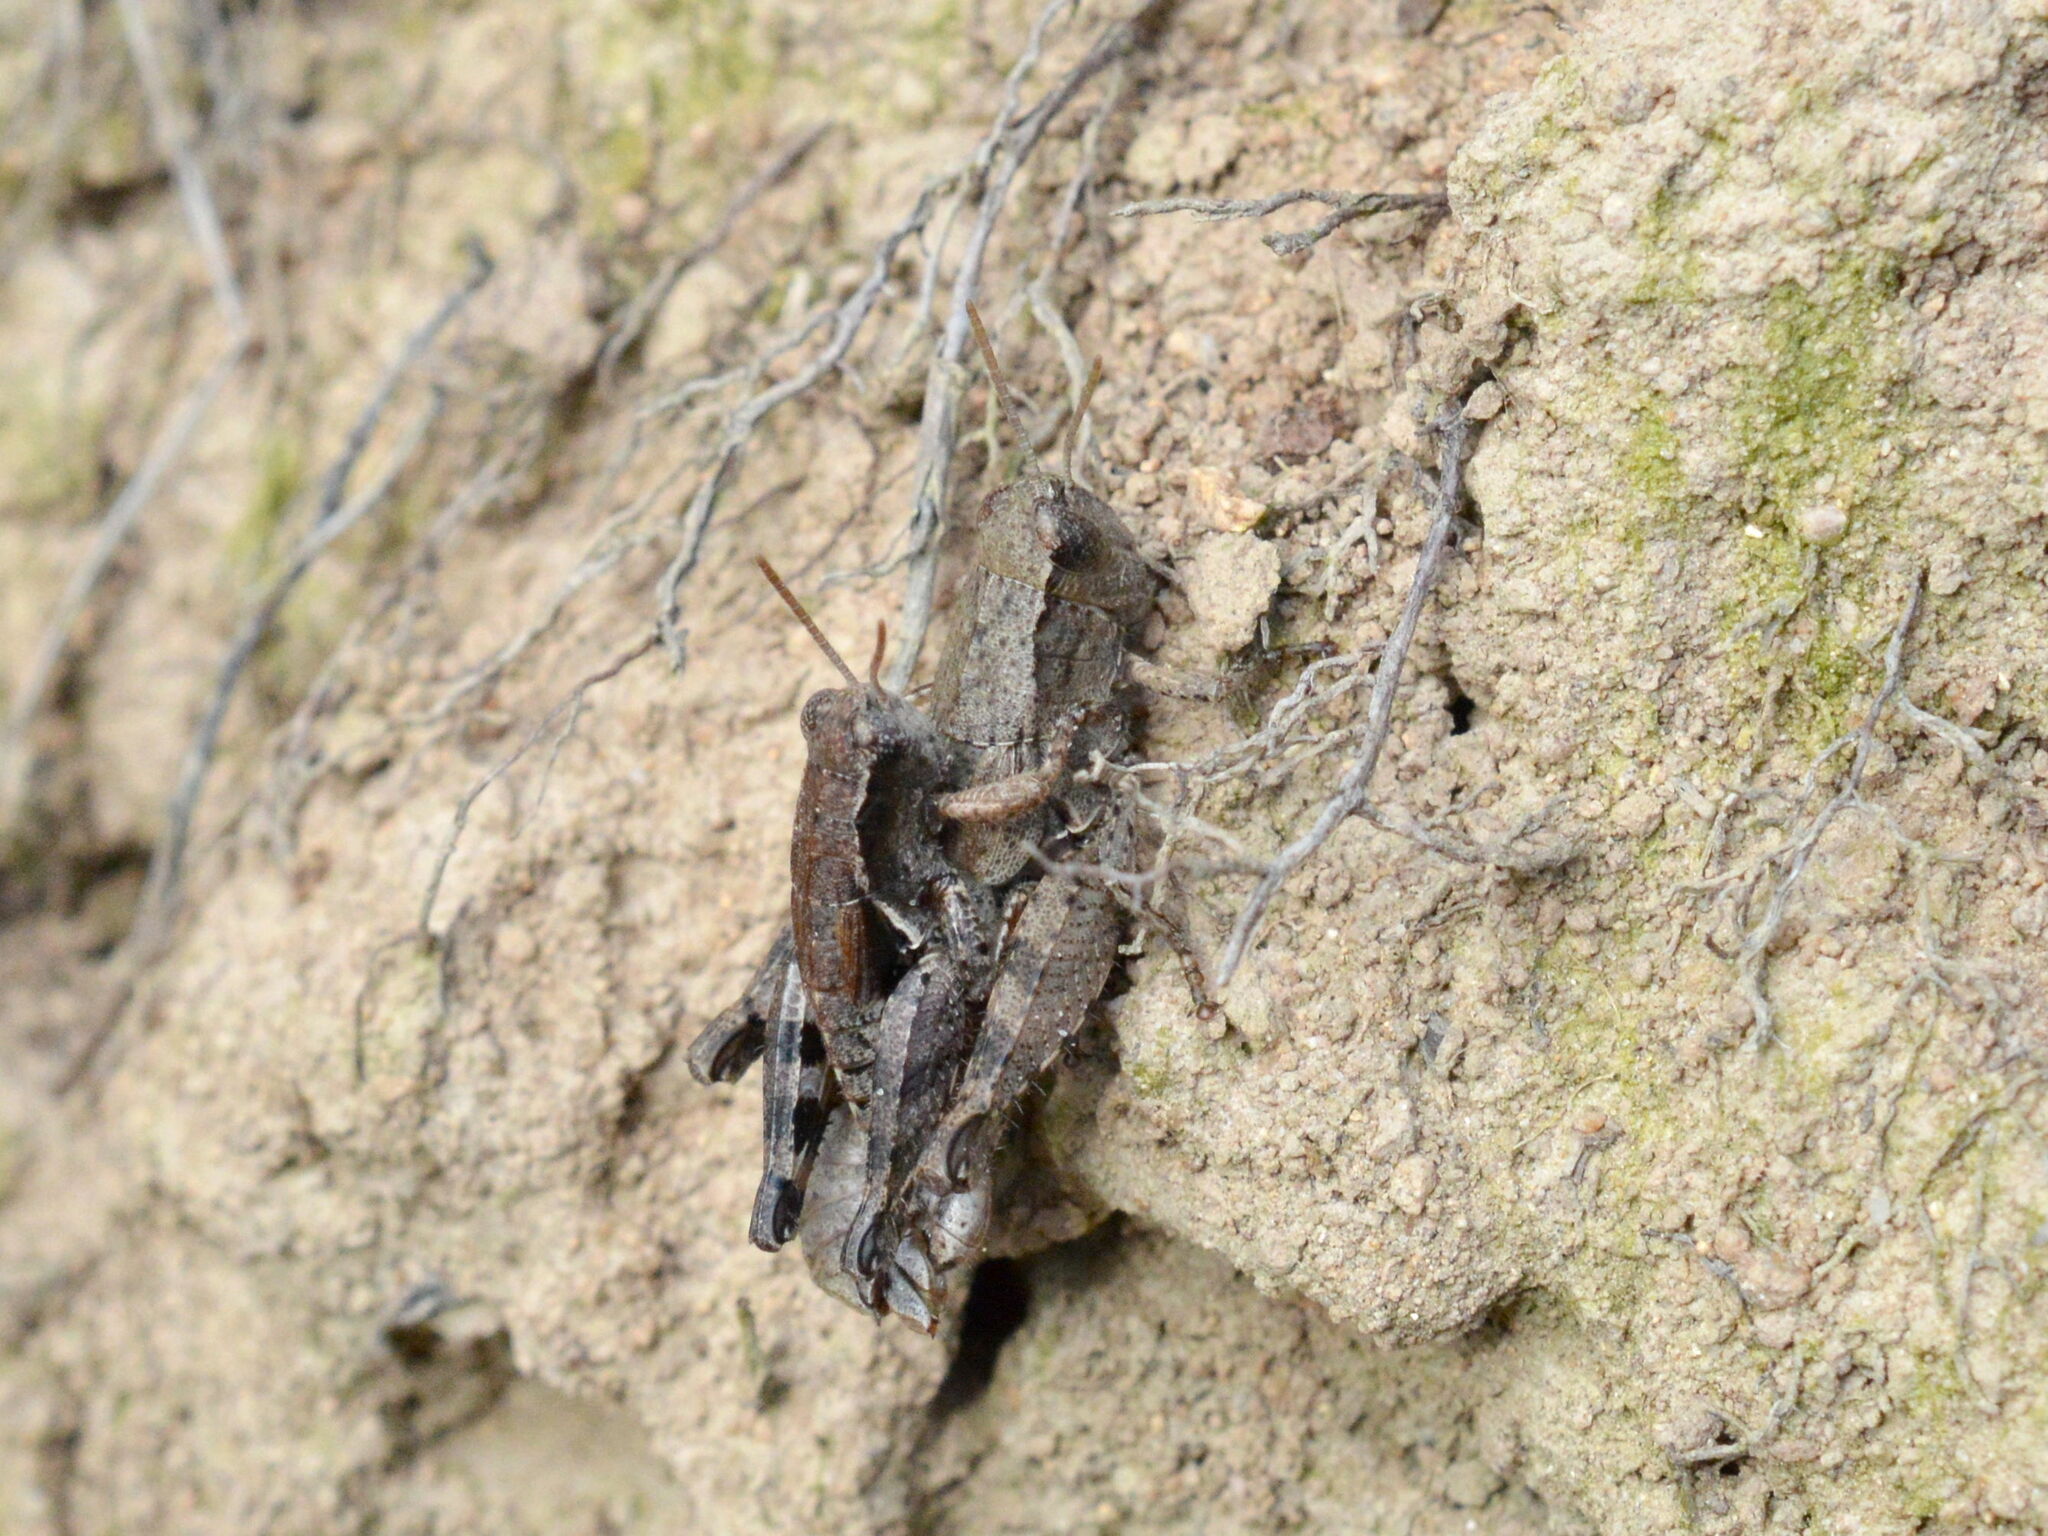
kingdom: Animalia
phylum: Arthropoda
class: Insecta
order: Orthoptera
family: Acrididae
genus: Pezotettix
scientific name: Pezotettix giornae
